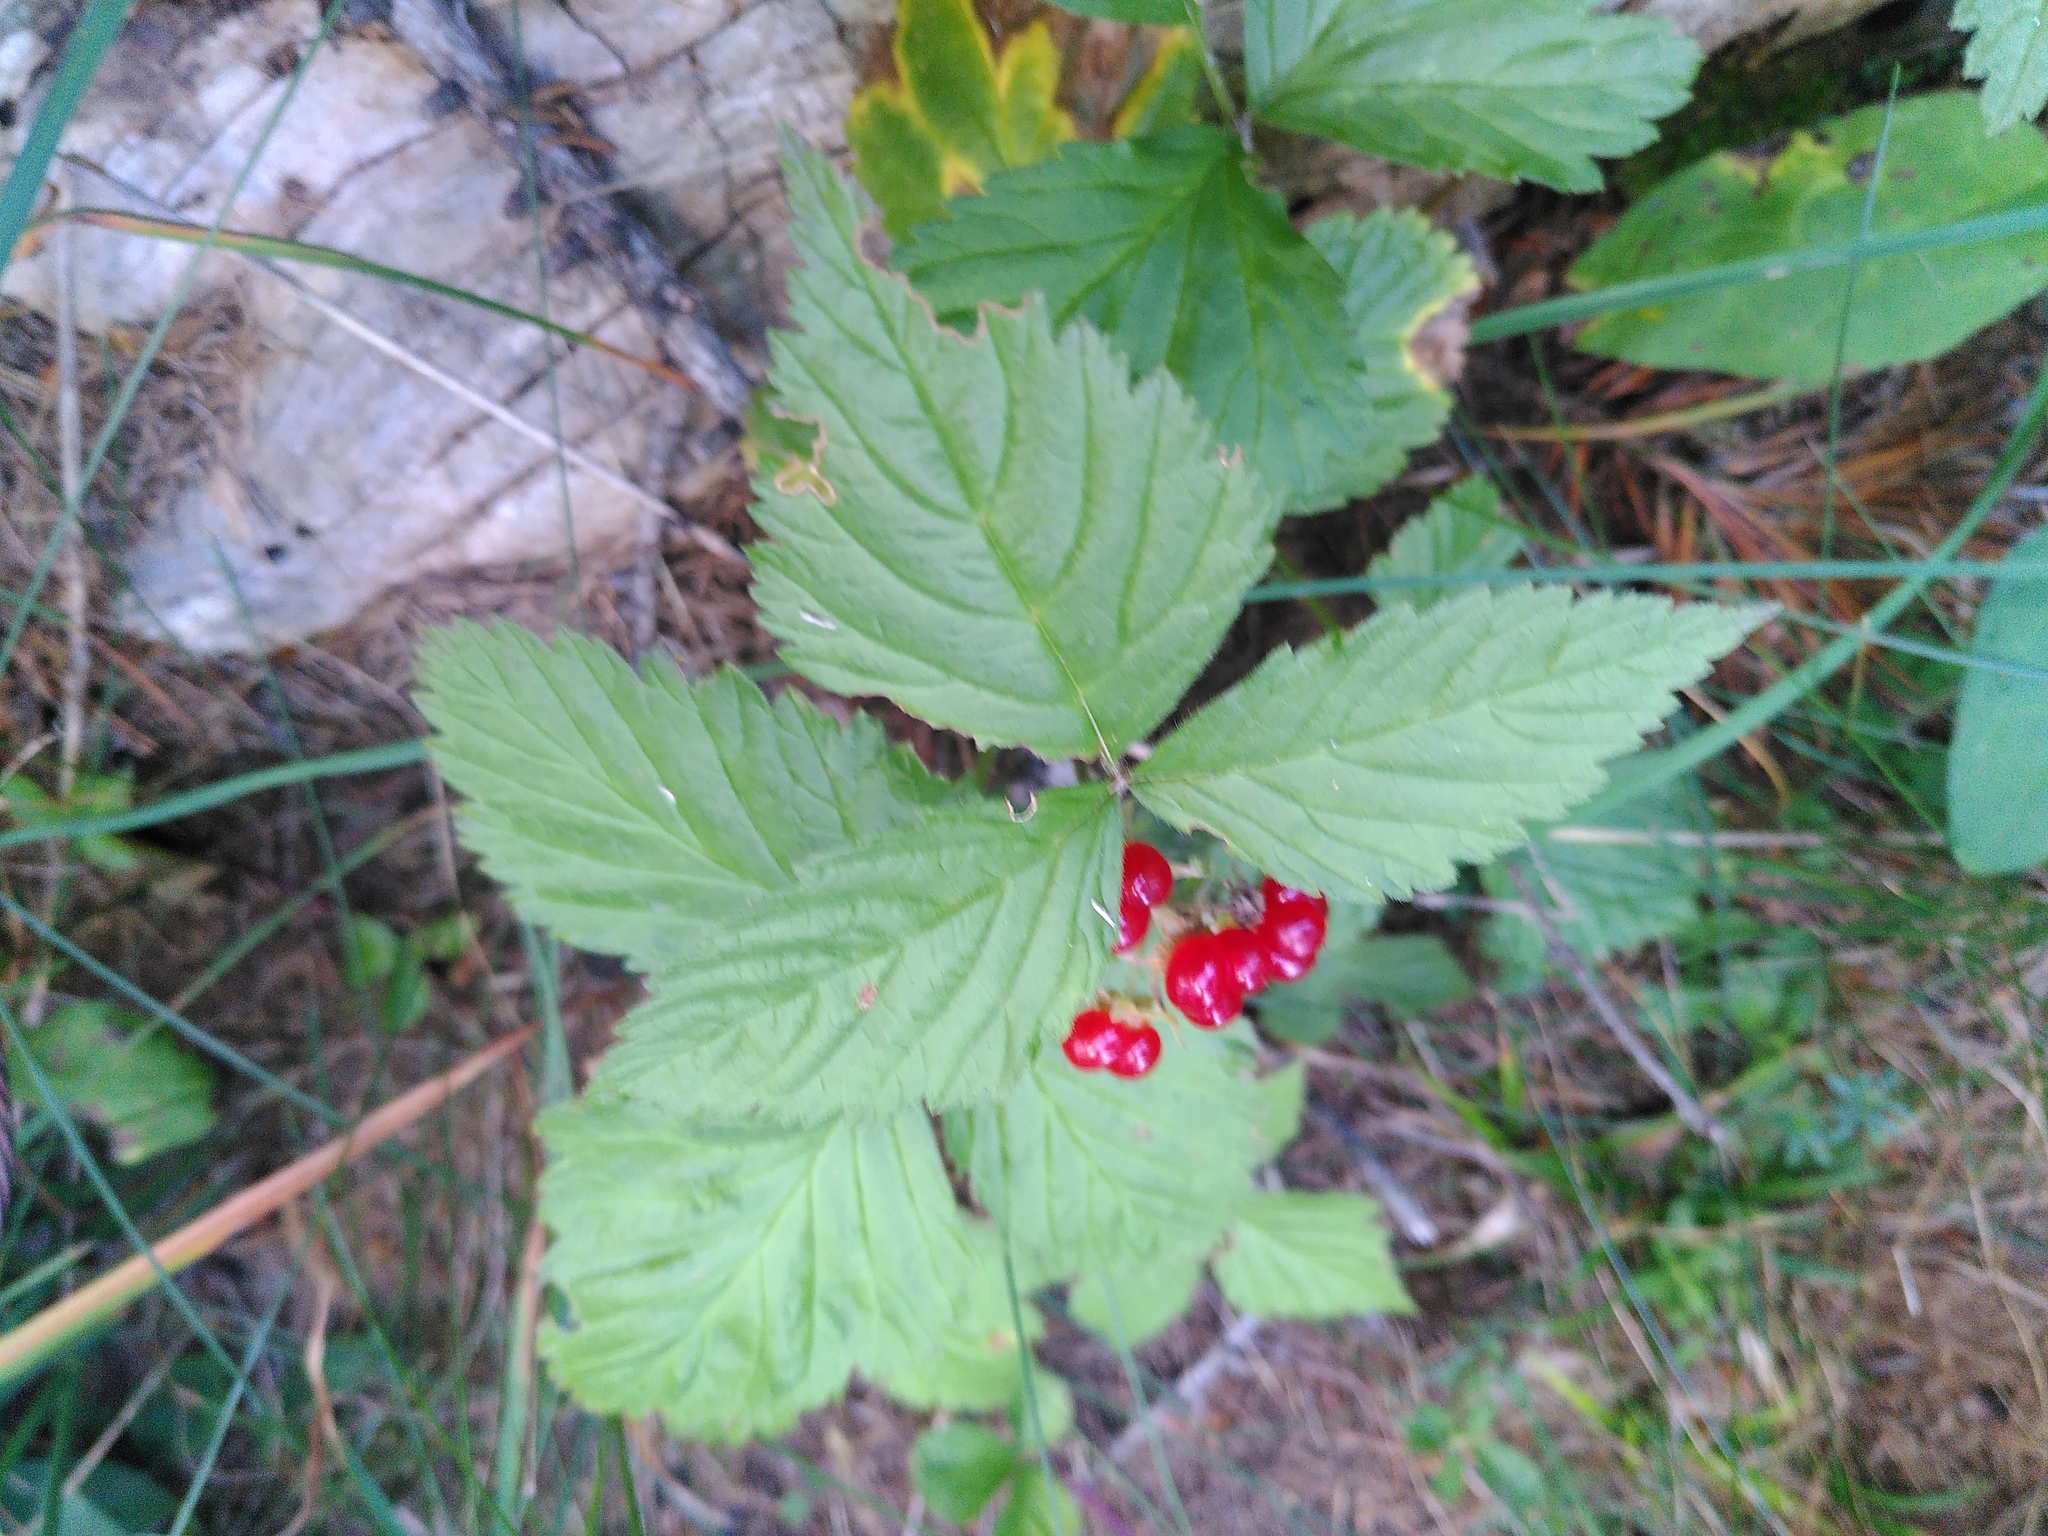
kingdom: Plantae
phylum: Tracheophyta
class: Magnoliopsida
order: Rosales
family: Rosaceae
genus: Rubus
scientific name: Rubus saxatilis
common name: Stone bramble
